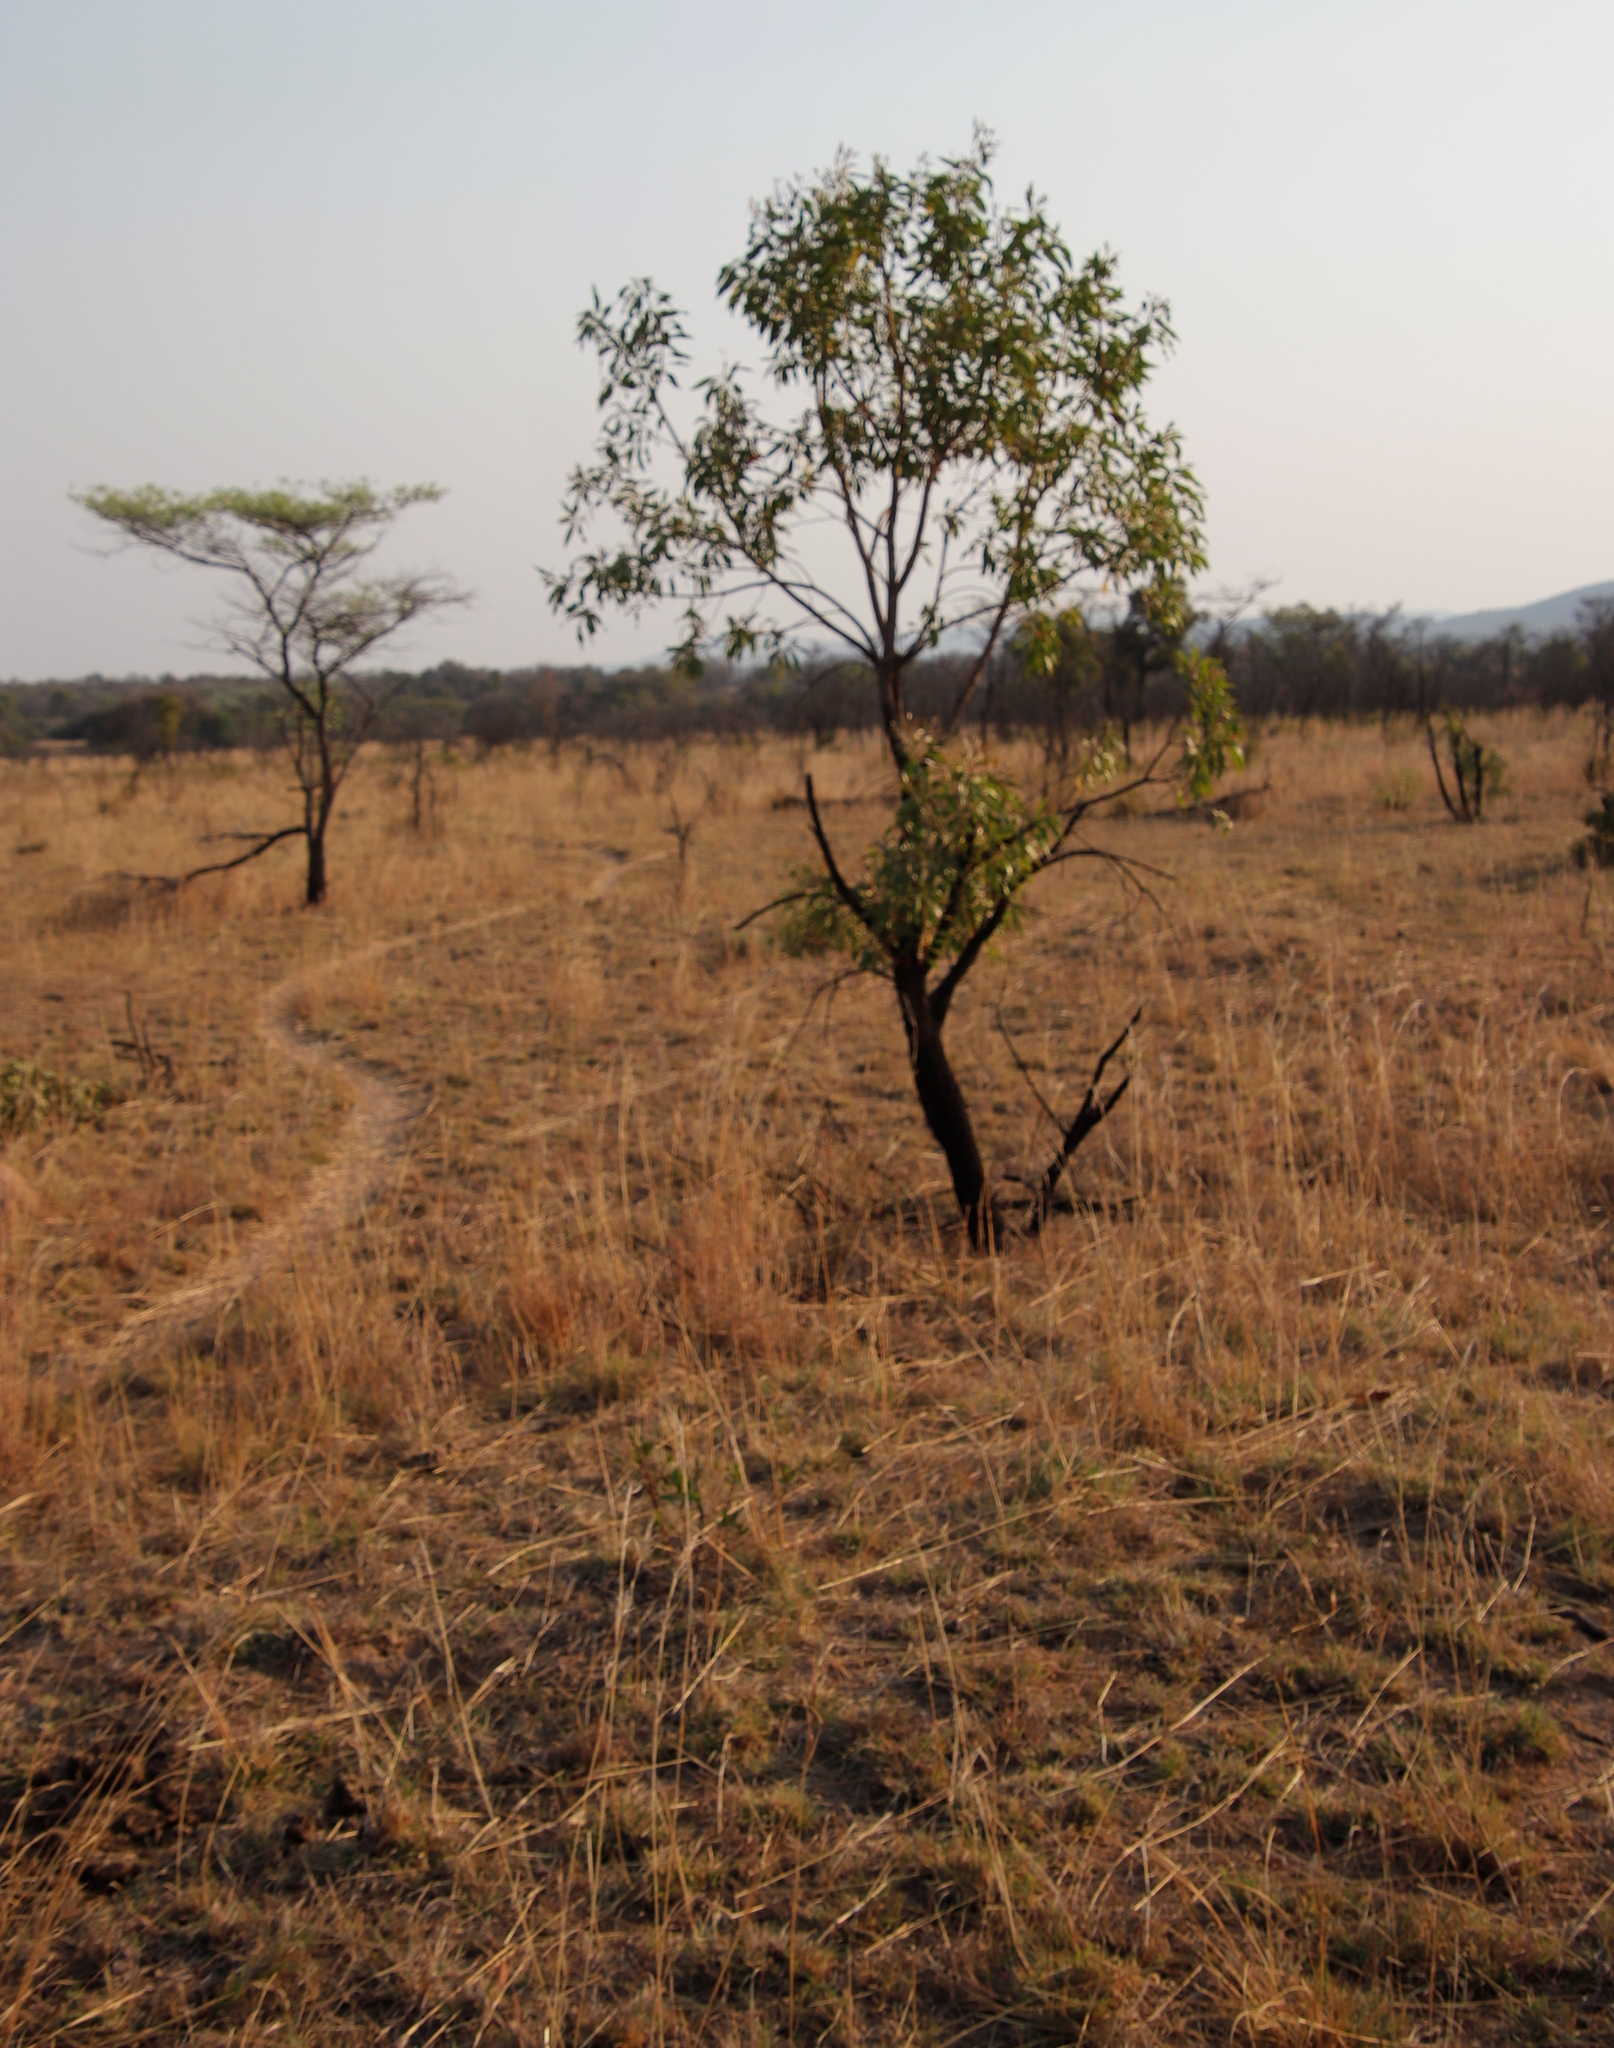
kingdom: Plantae
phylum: Tracheophyta
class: Magnoliopsida
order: Proteales
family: Proteaceae
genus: Faurea
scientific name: Faurea saligna
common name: African bean
